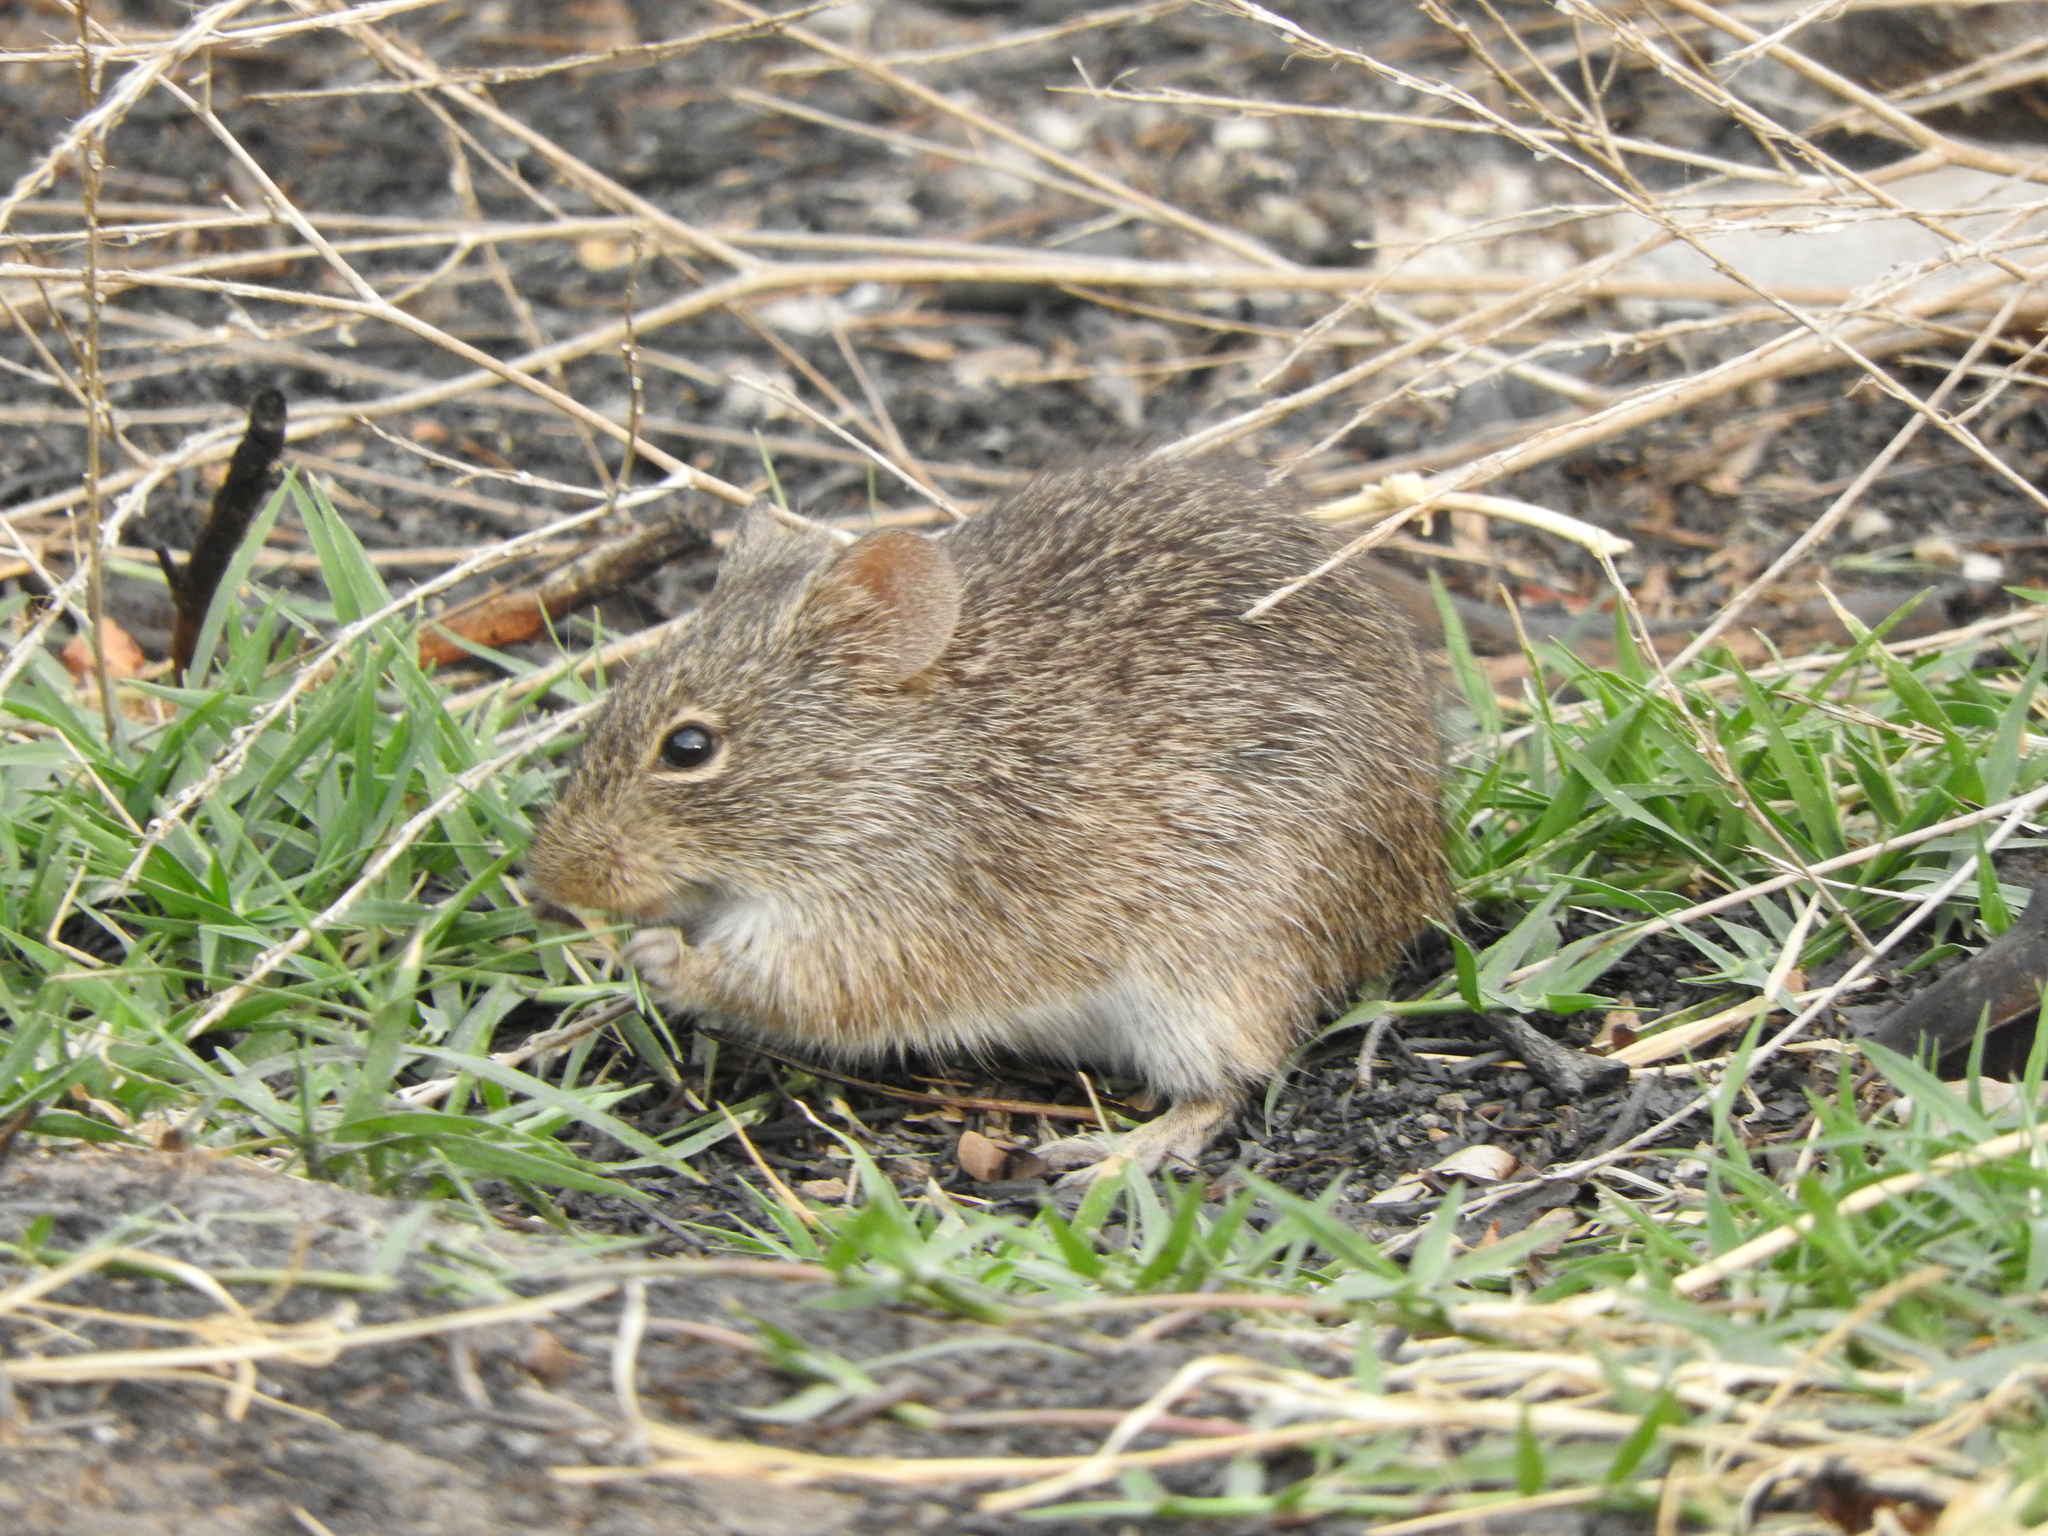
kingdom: Animalia
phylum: Chordata
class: Mammalia
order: Rodentia
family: Cricetidae
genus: Sigmodon
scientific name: Sigmodon
